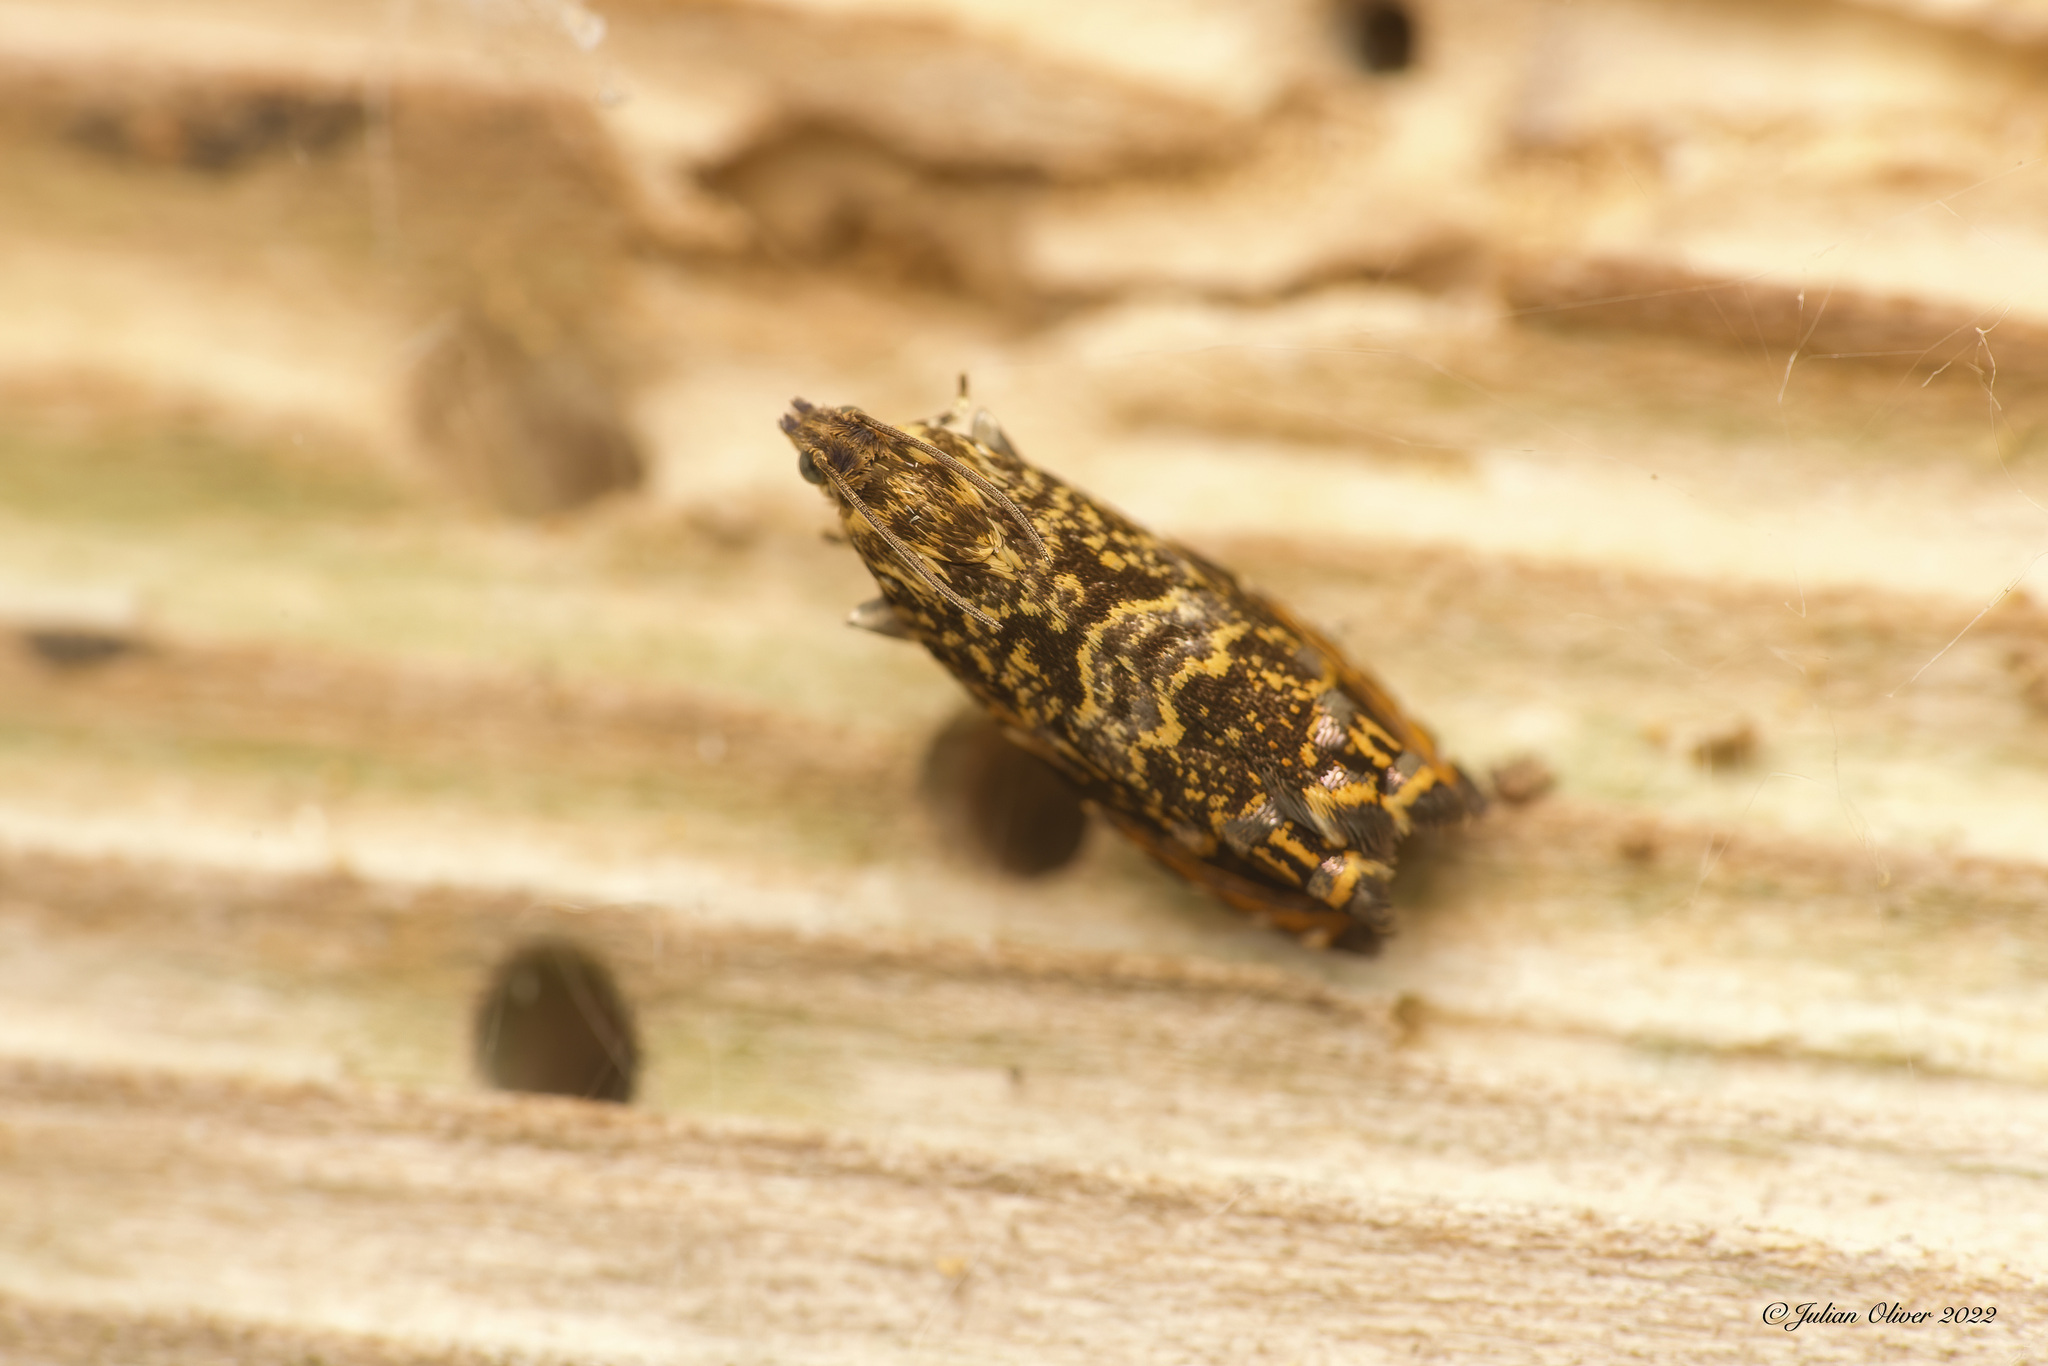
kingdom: Animalia
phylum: Arthropoda
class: Insecta
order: Lepidoptera
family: Tortricidae
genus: Enarmonia
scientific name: Enarmonia formosana
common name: Cherry bark tortrix
